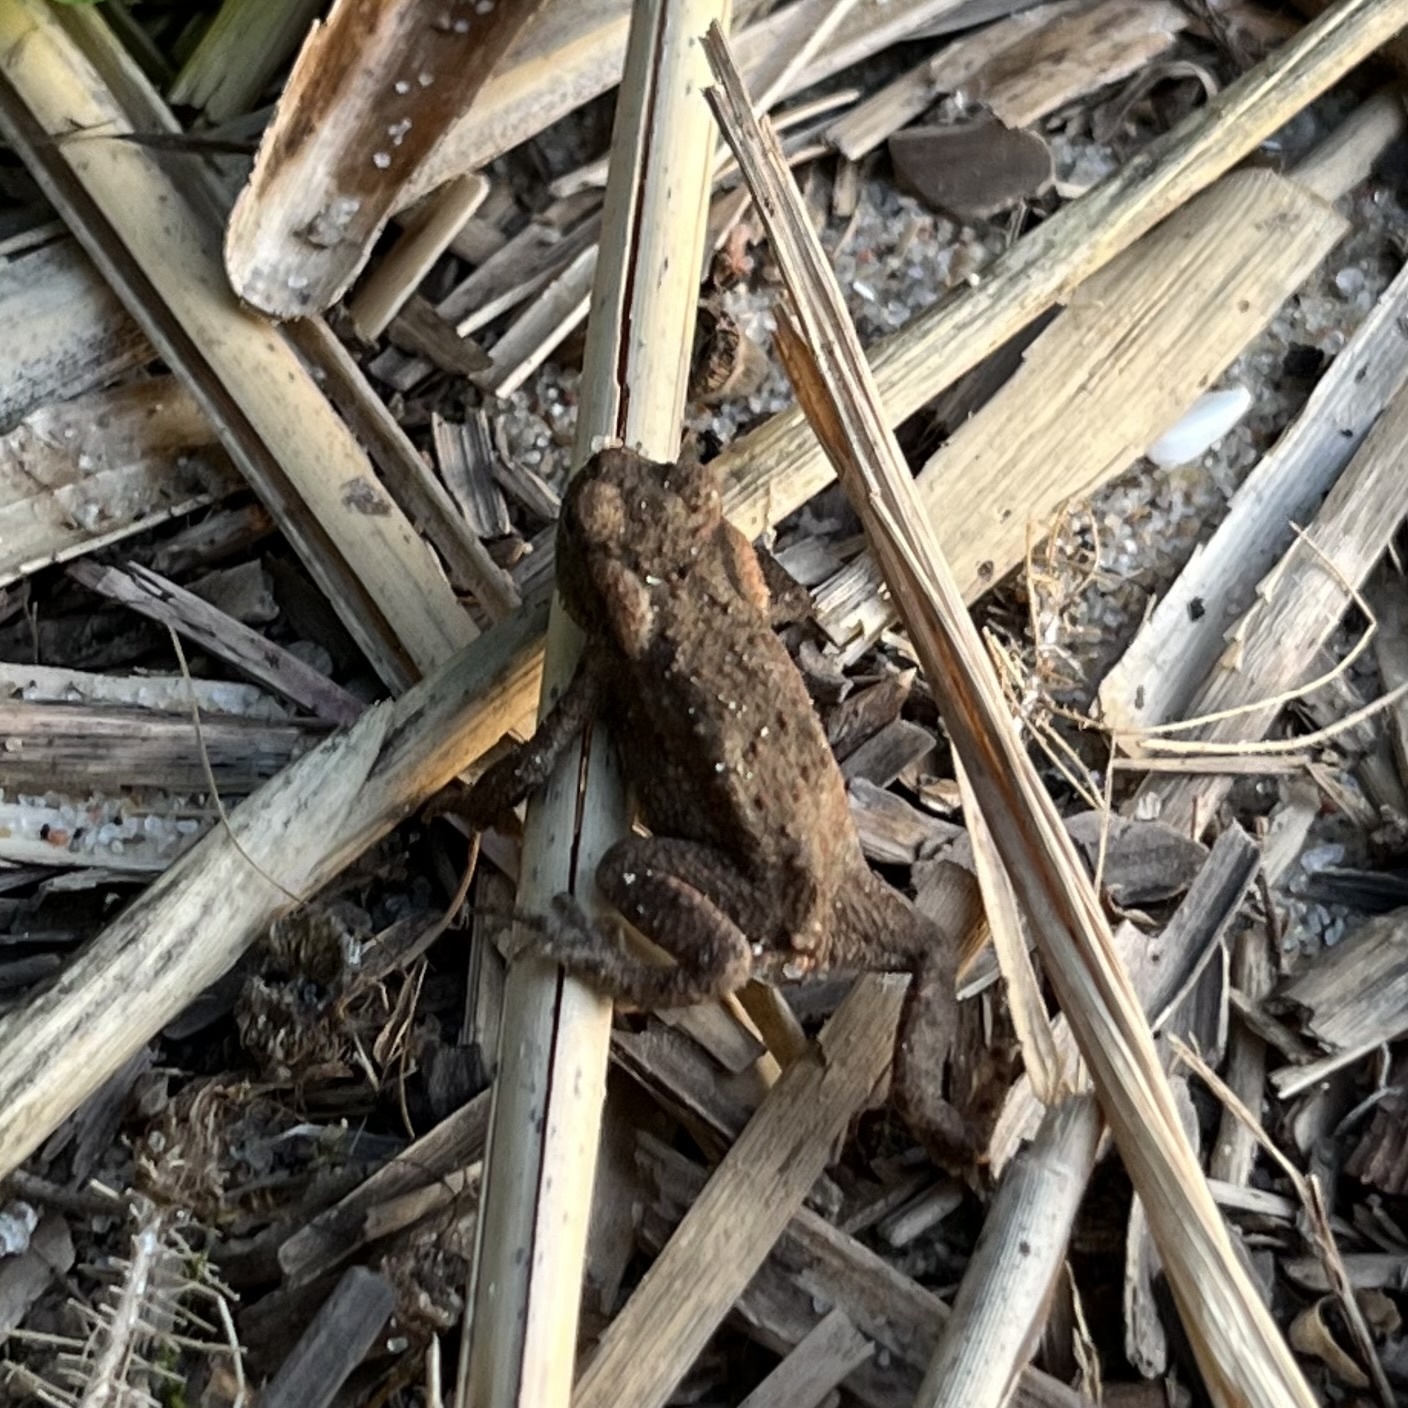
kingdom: Animalia
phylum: Chordata
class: Amphibia
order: Anura
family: Bufonidae
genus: Bufo
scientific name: Bufo bufo
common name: Common toad
